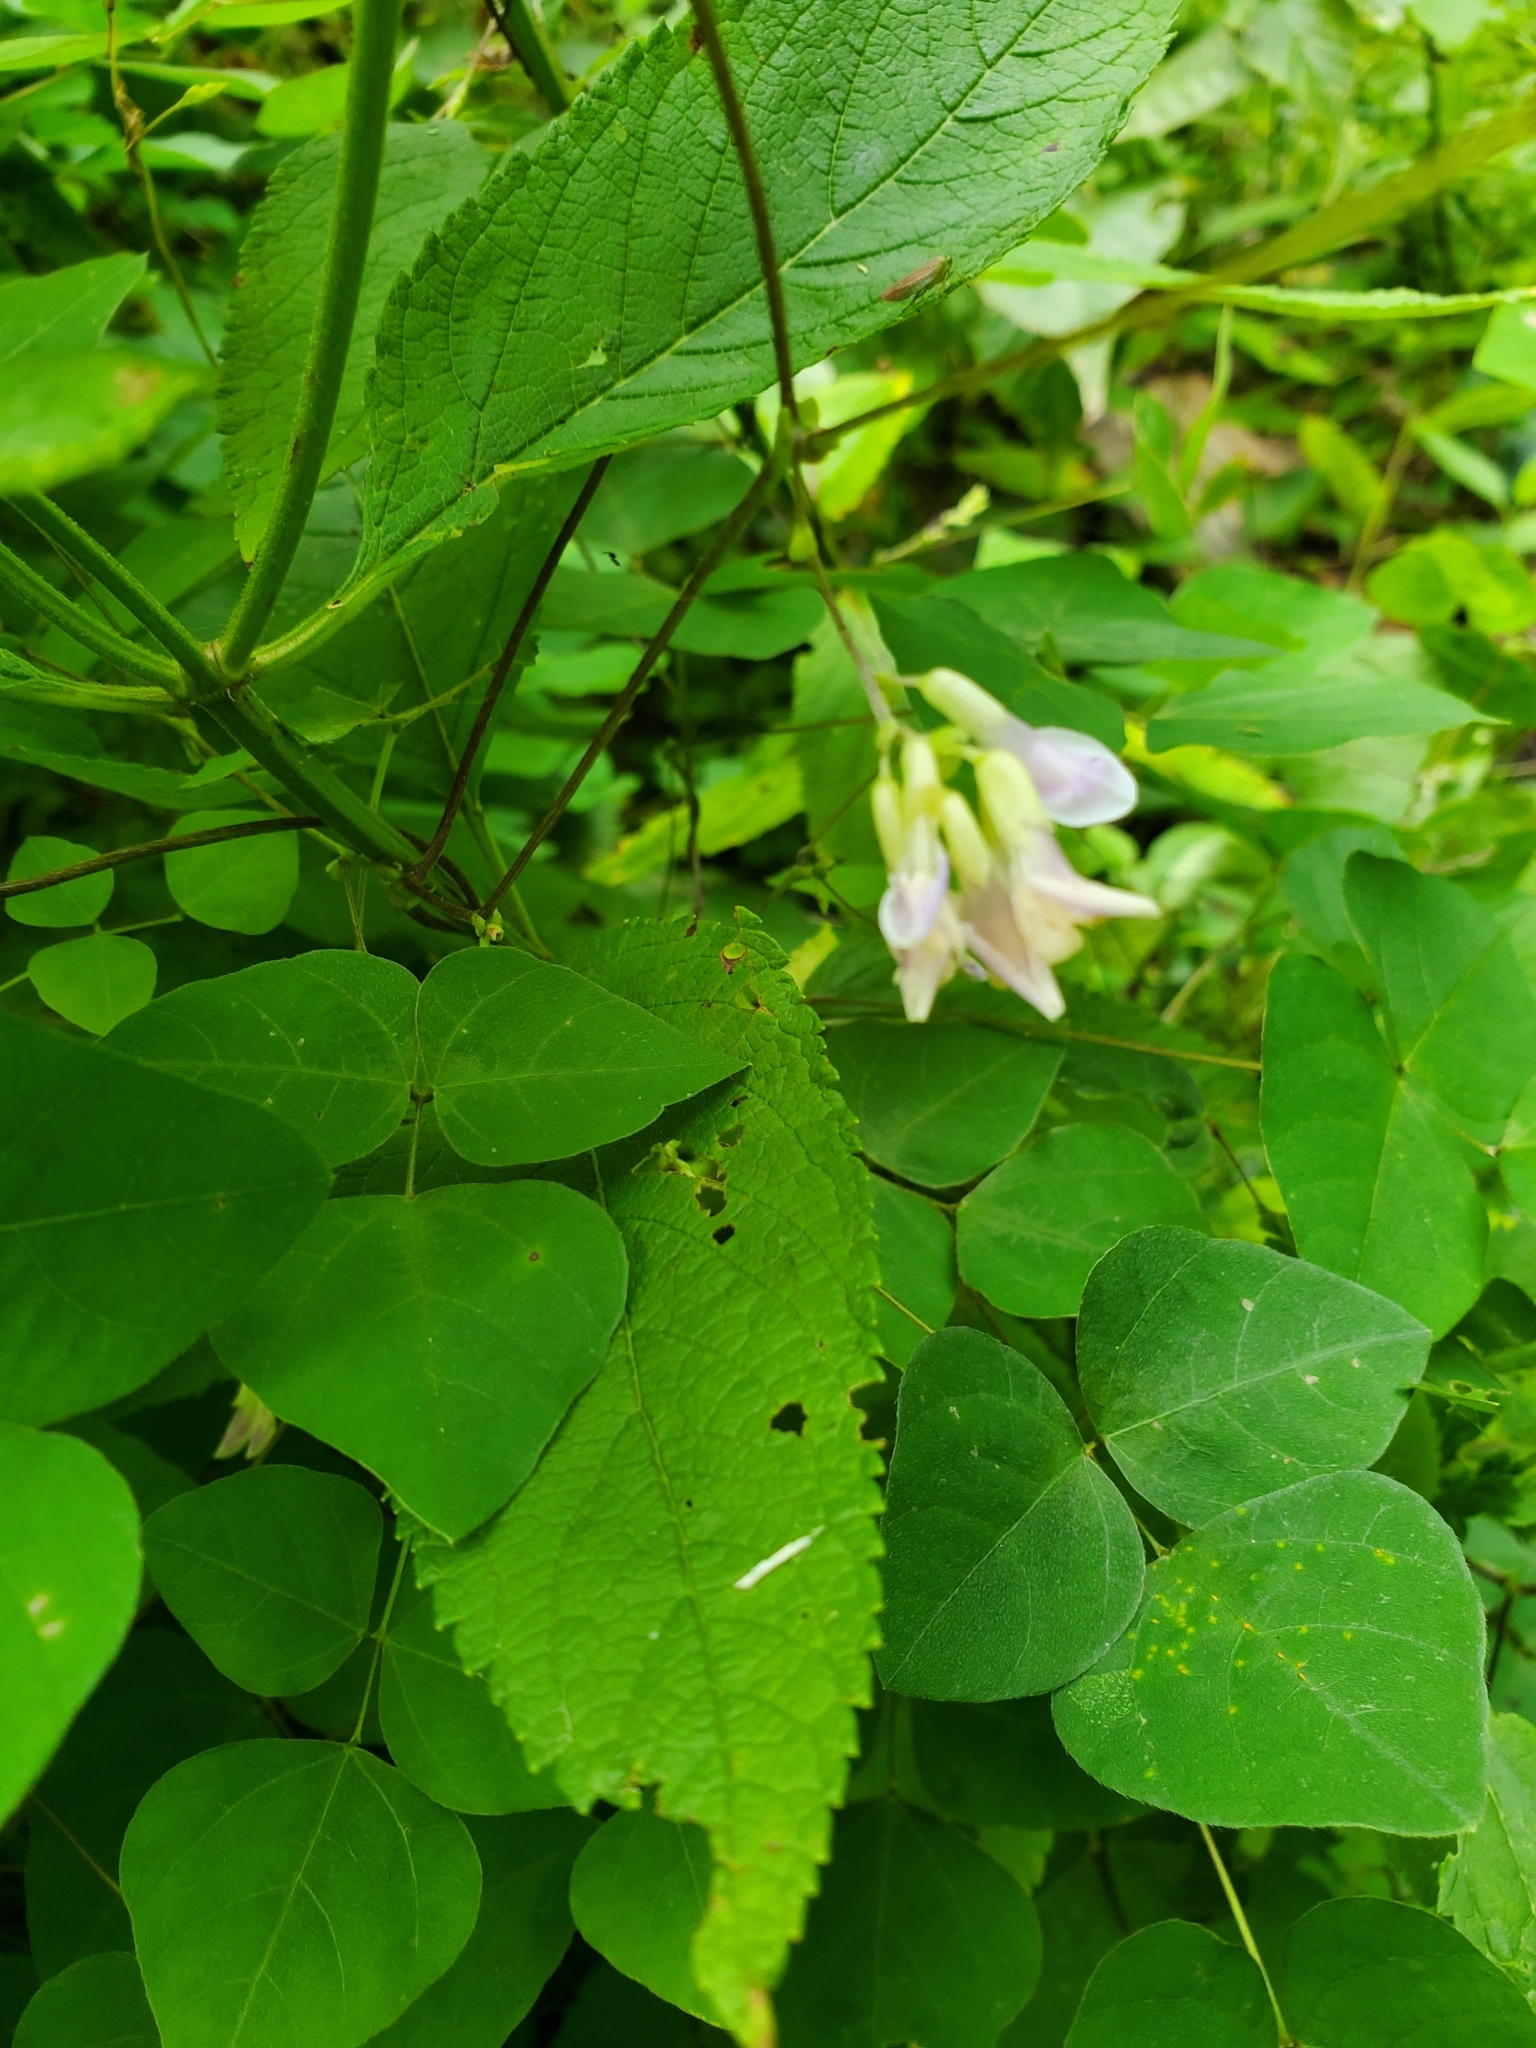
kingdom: Plantae
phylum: Tracheophyta
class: Magnoliopsida
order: Fabales
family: Fabaceae
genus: Amphicarpaea
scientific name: Amphicarpaea bracteata
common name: American hog peanut
